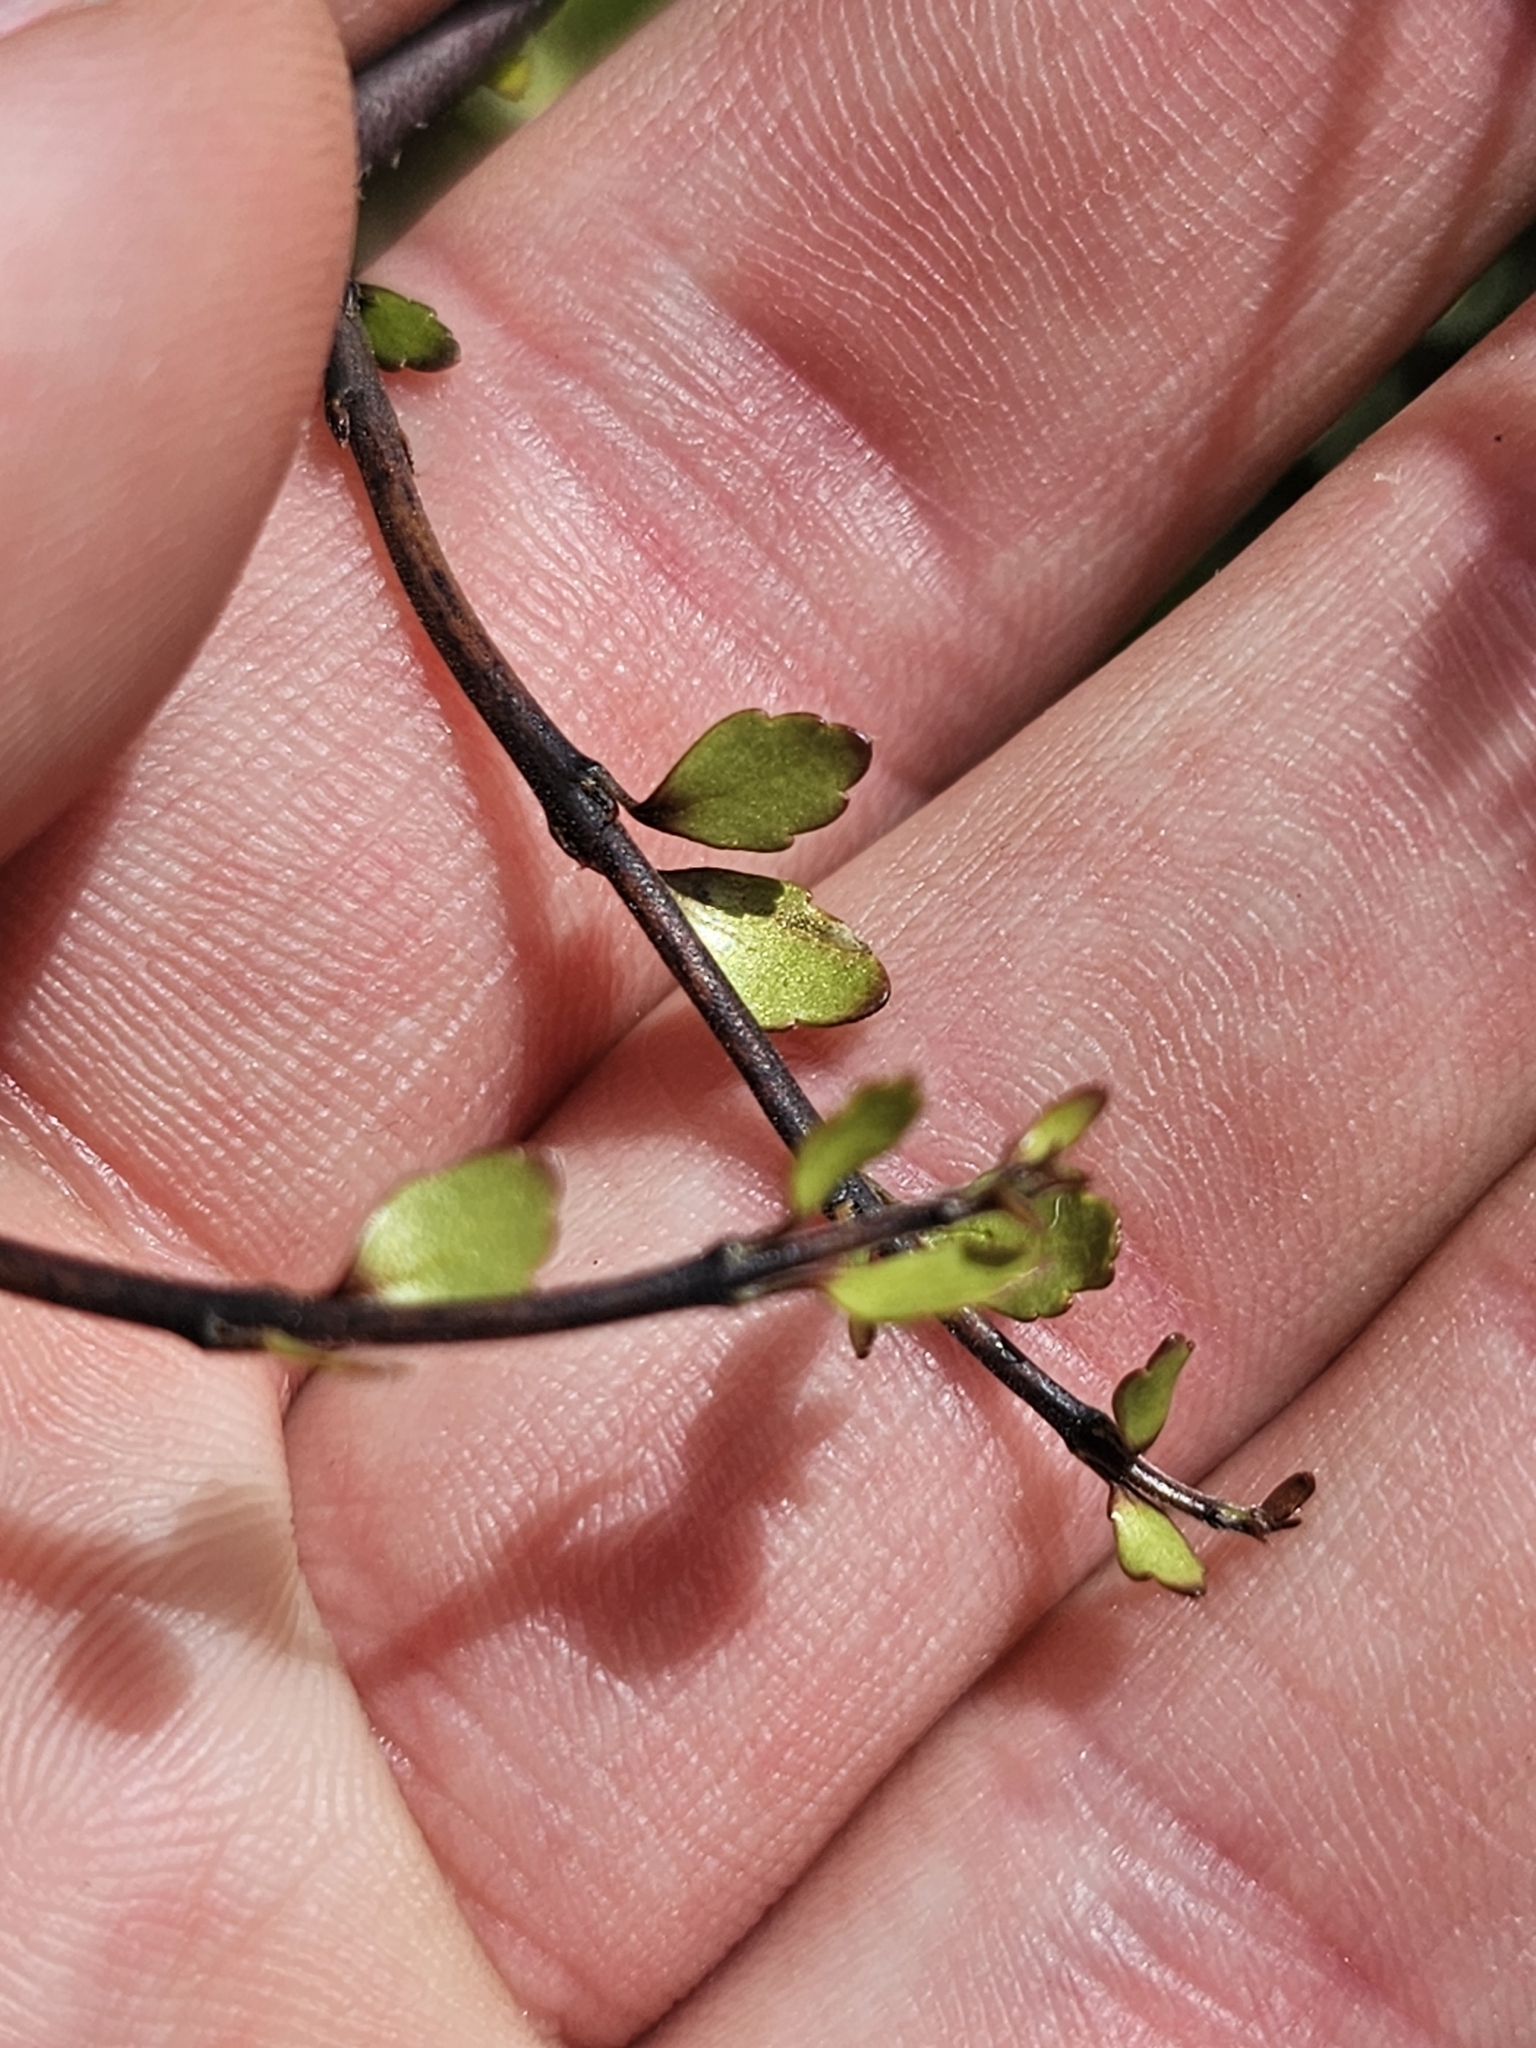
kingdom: Plantae
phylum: Tracheophyta
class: Magnoliopsida
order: Oxalidales
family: Elaeocarpaceae
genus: Aristotelia
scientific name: Aristotelia fruticosa
